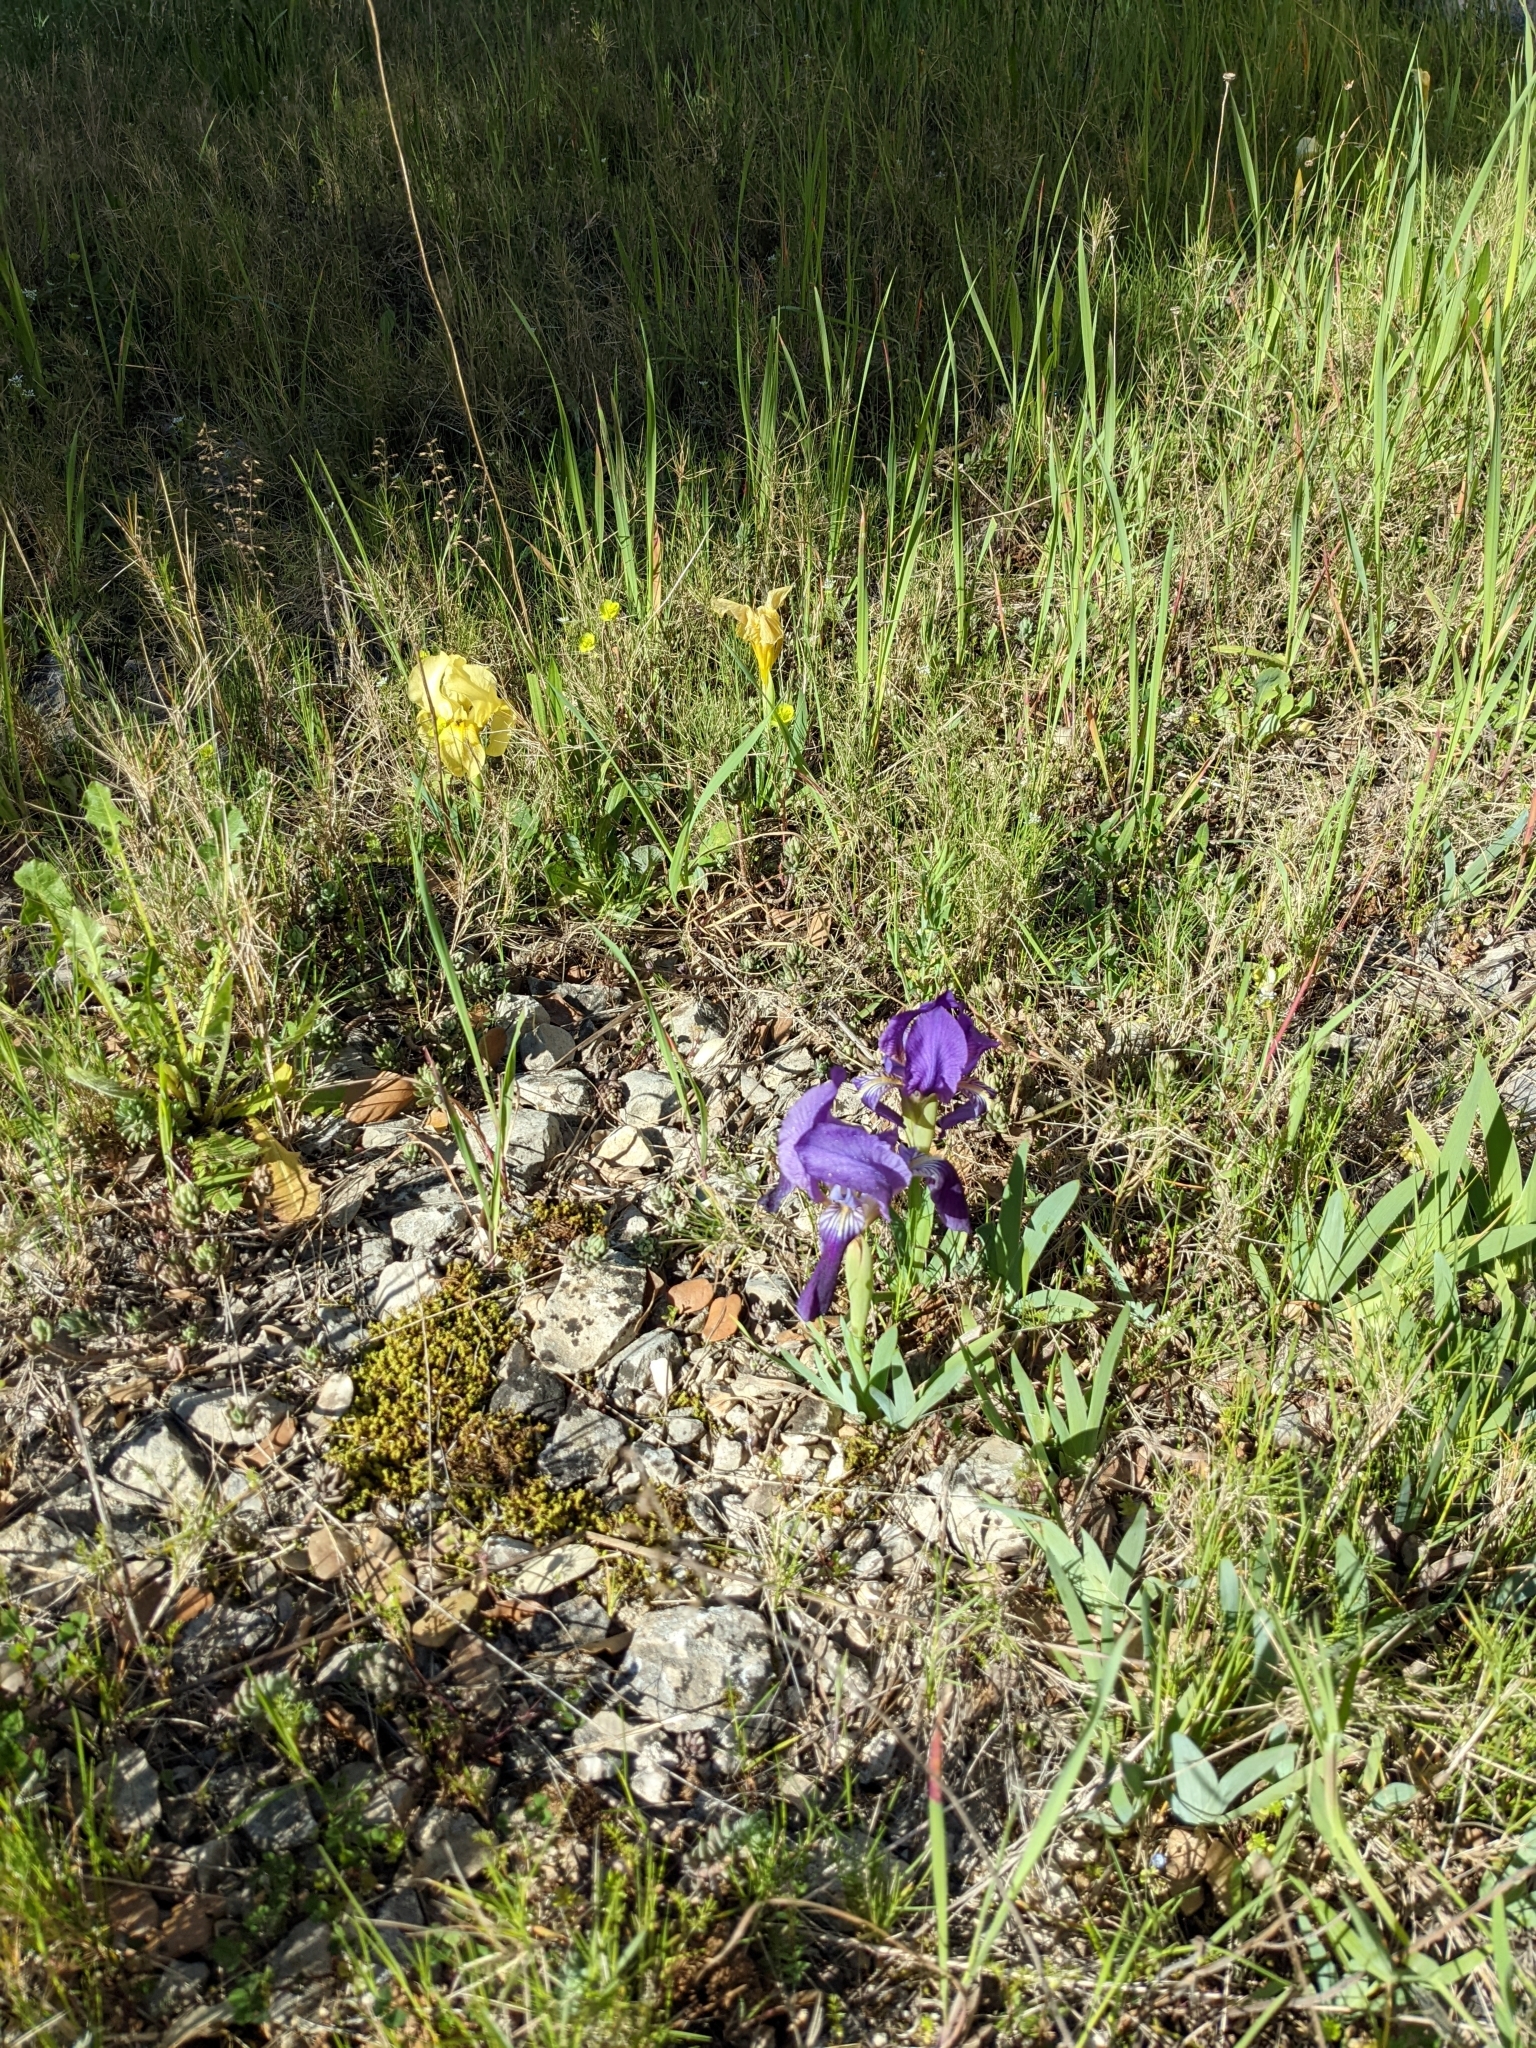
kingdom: Plantae
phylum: Tracheophyta
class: Liliopsida
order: Asparagales
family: Iridaceae
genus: Iris
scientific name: Iris lutescens
